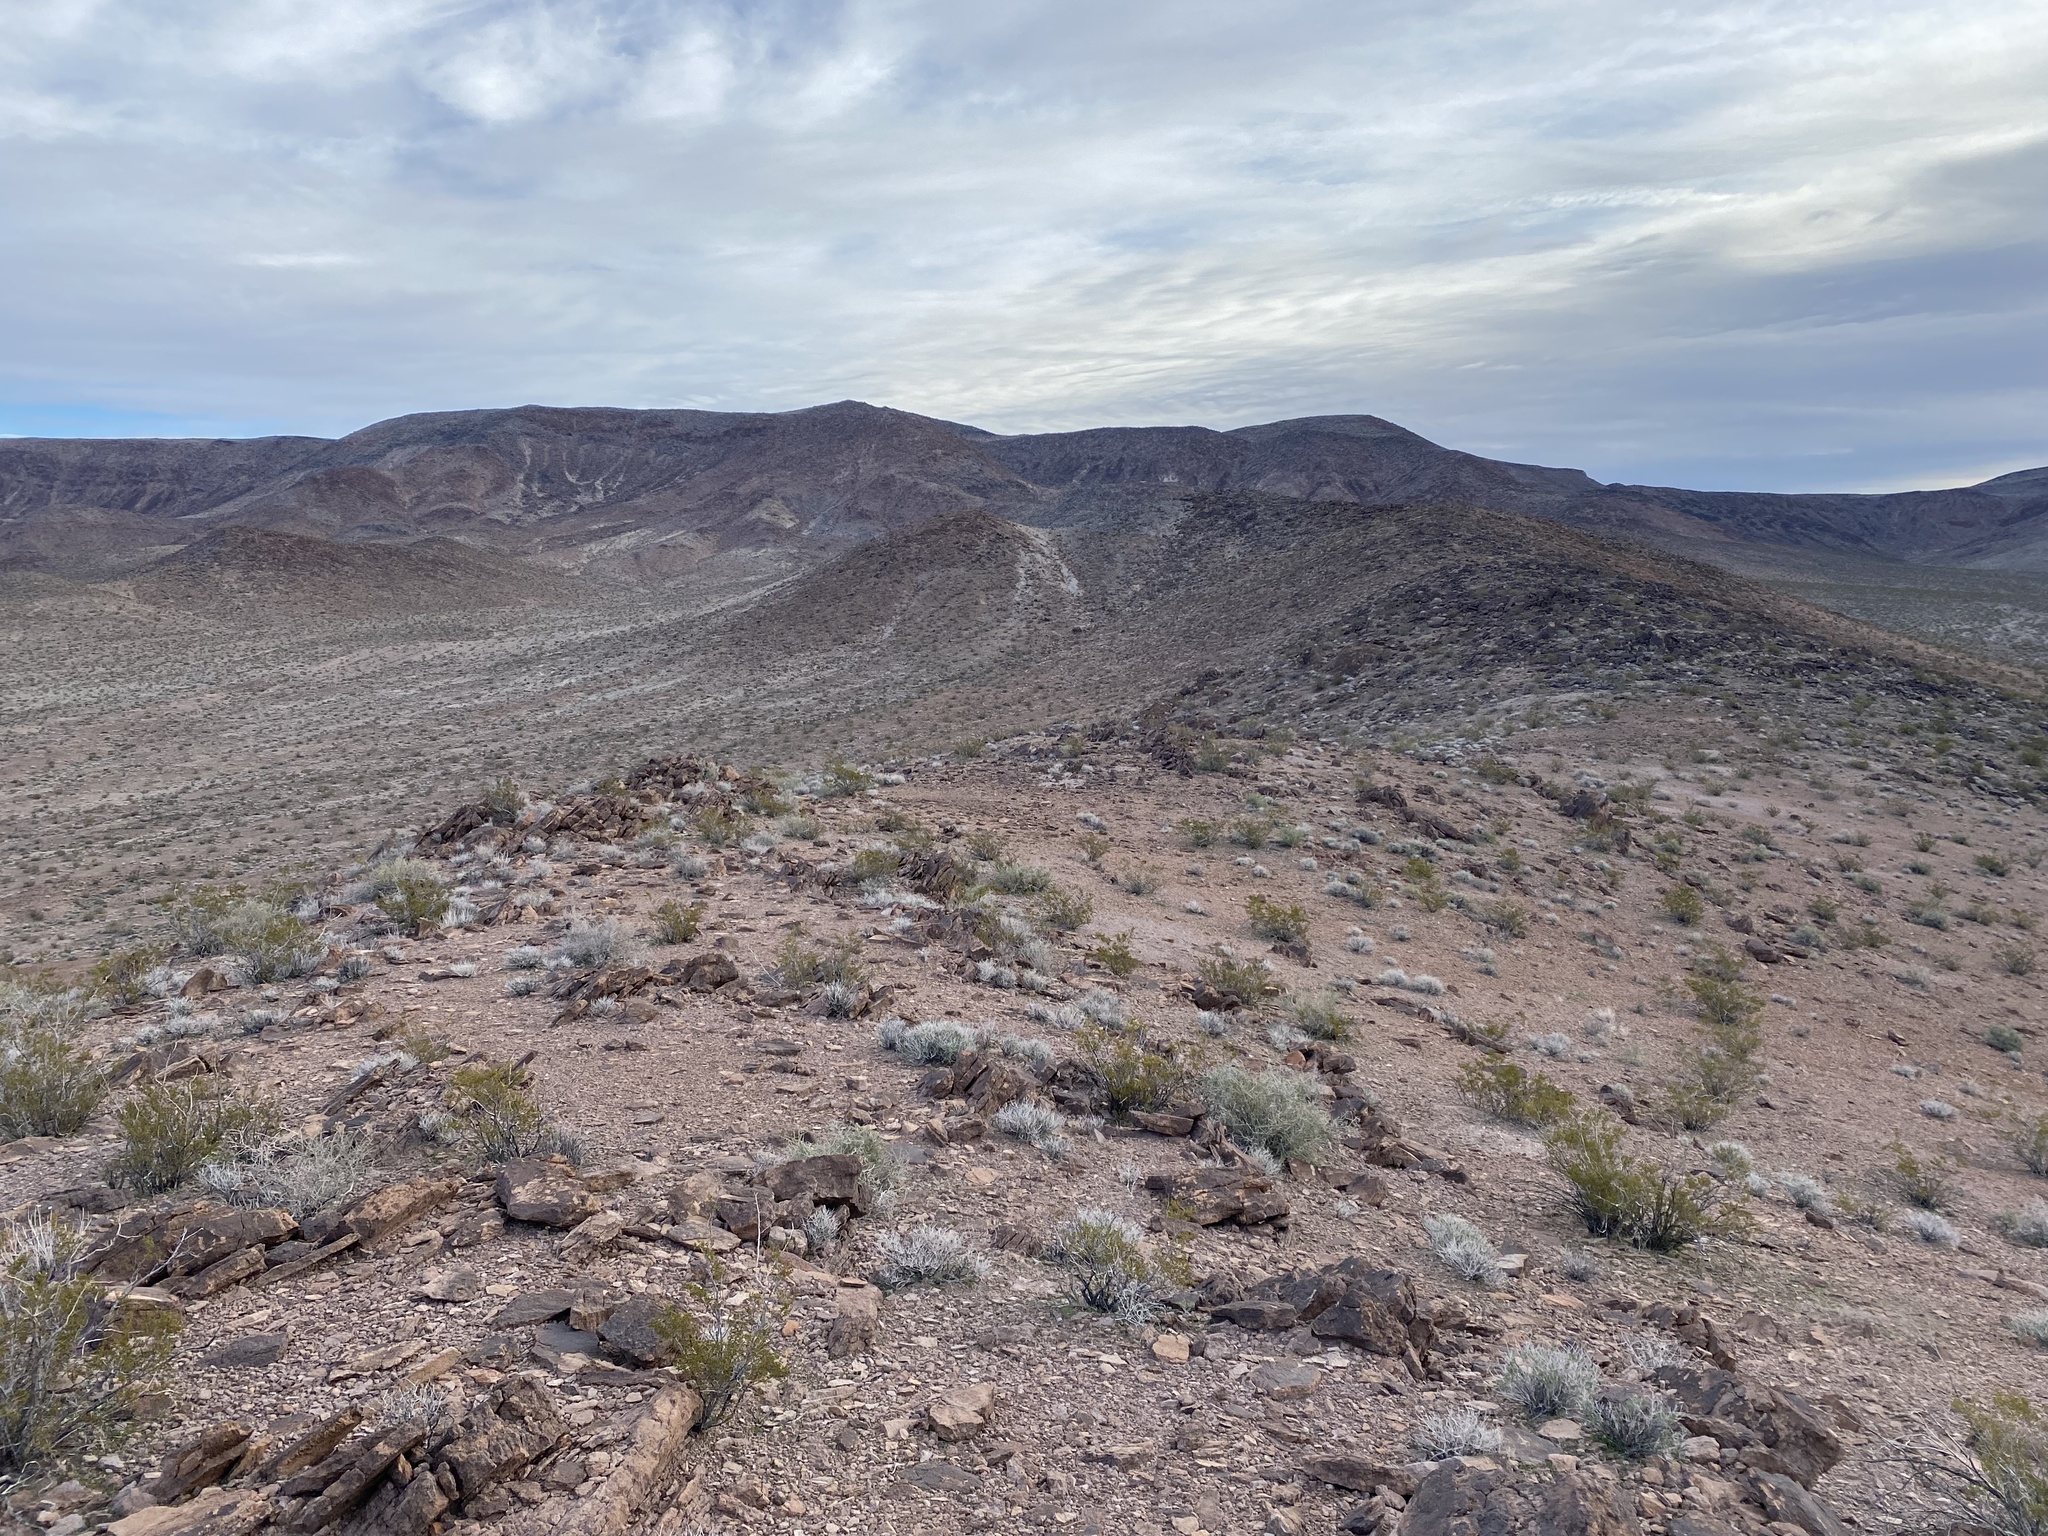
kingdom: Plantae
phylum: Tracheophyta
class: Magnoliopsida
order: Zygophyllales
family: Zygophyllaceae
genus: Larrea
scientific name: Larrea tridentata
